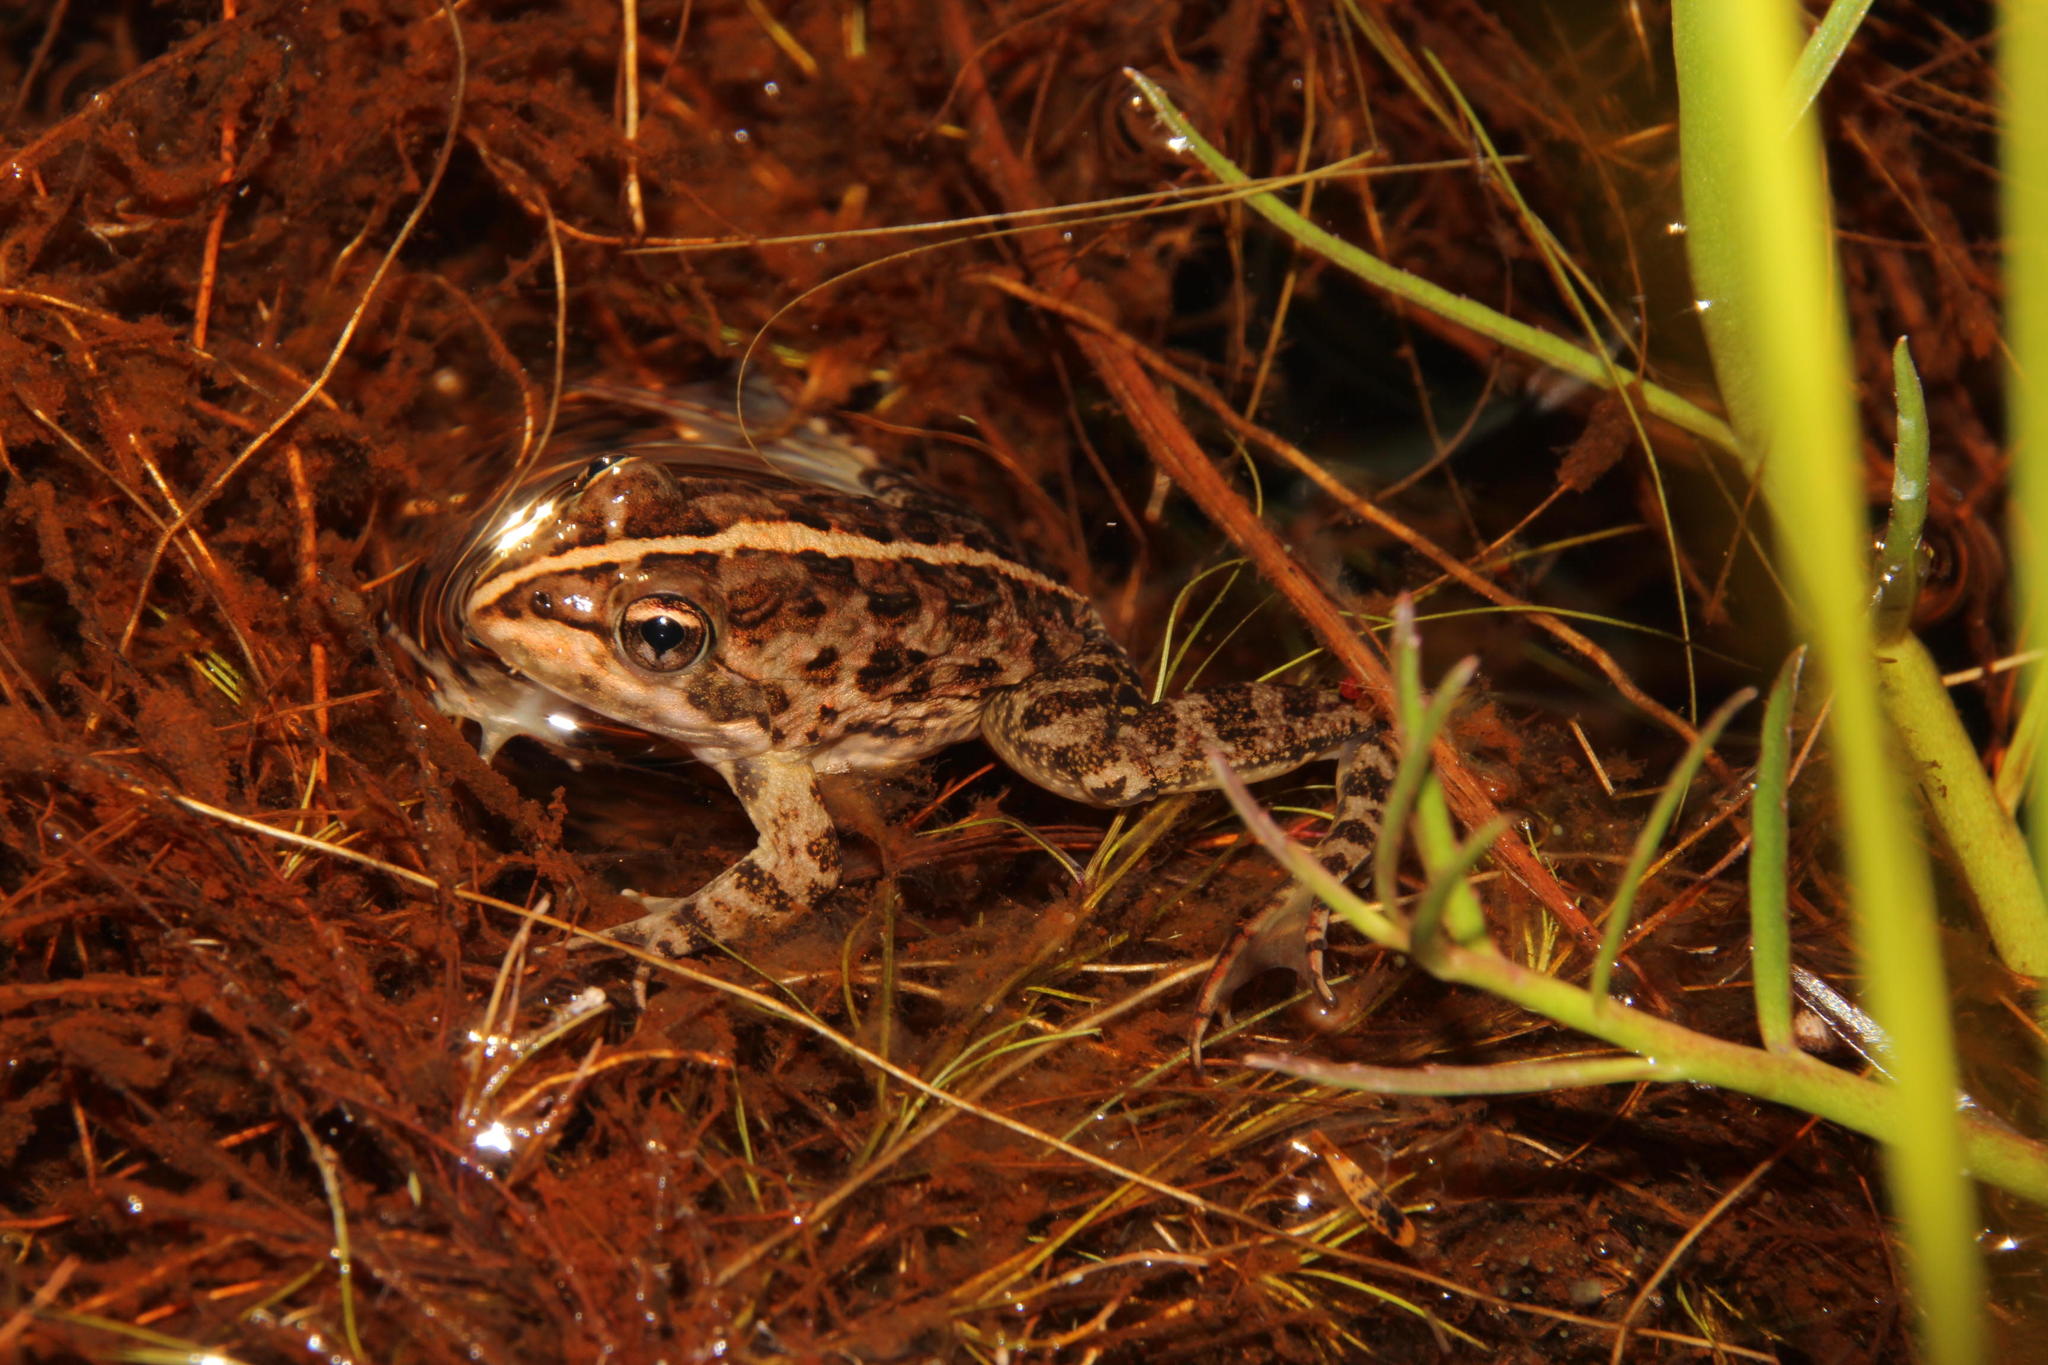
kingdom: Animalia
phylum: Chordata
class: Amphibia
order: Anura
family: Pyxicephalidae
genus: Amietia
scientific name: Amietia fuscigula
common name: Cape rana
